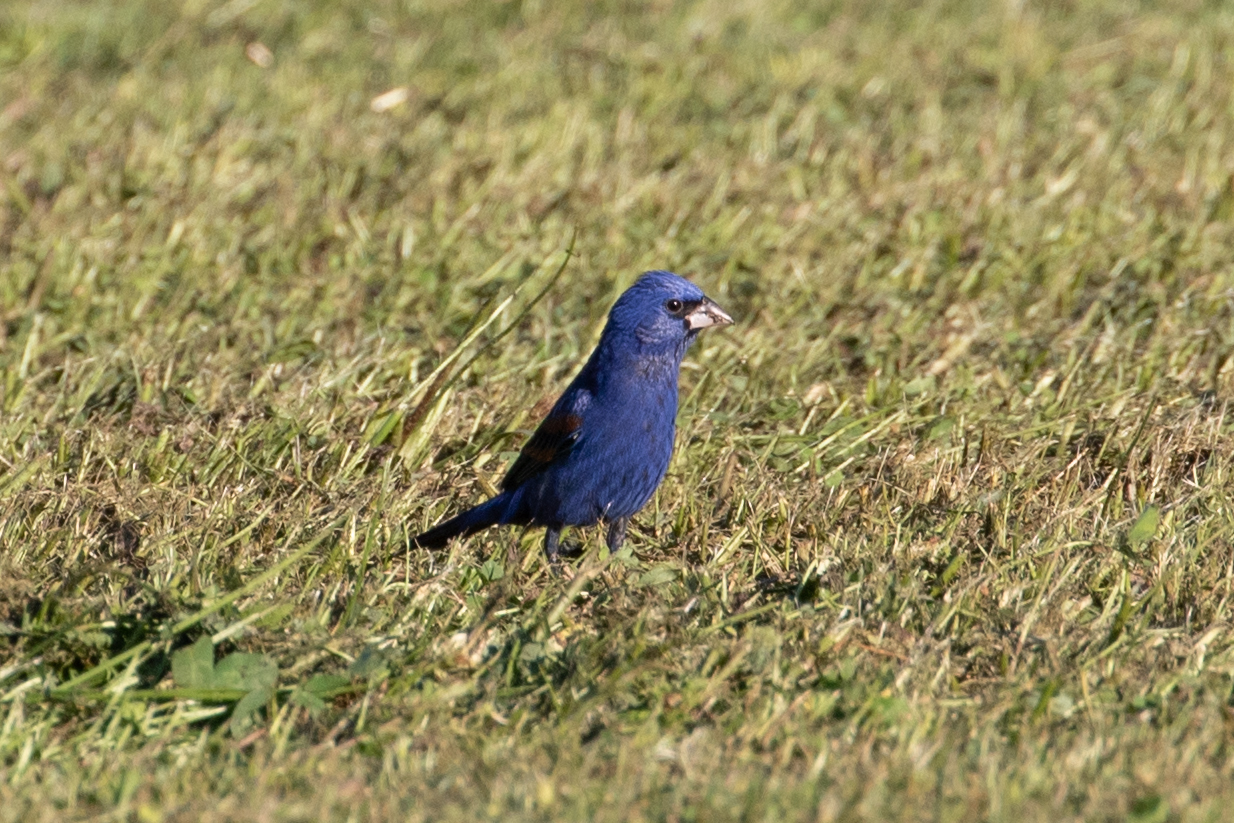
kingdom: Animalia
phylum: Chordata
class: Aves
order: Passeriformes
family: Cardinalidae
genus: Passerina
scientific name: Passerina caerulea
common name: Blue grosbeak
